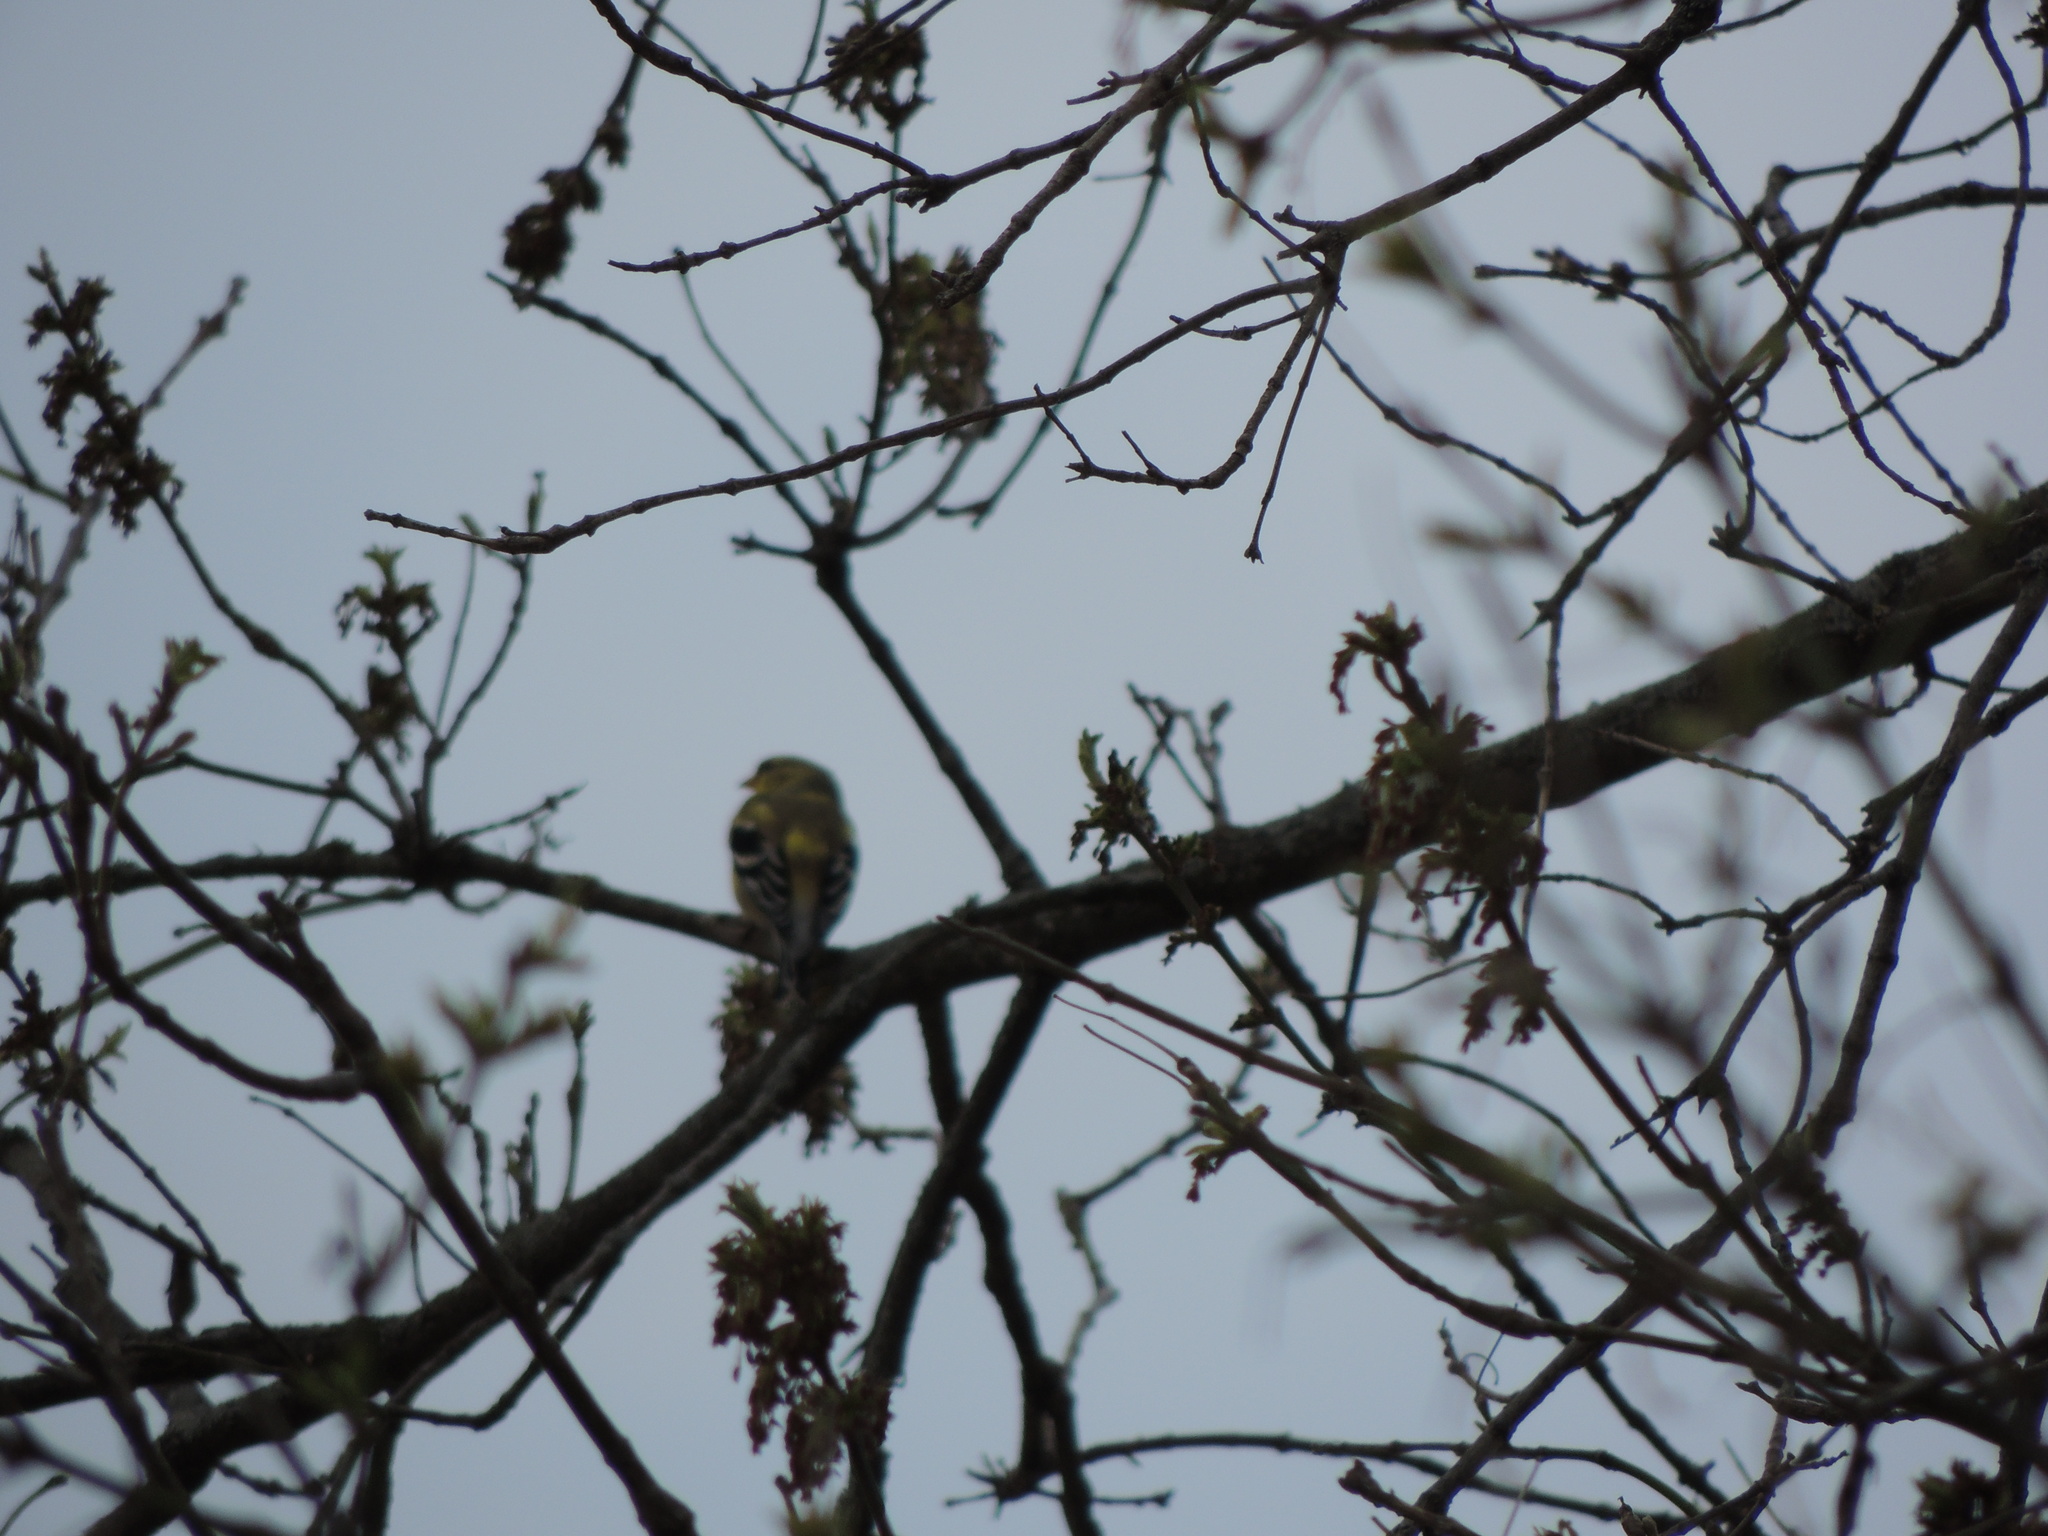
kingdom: Animalia
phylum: Chordata
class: Aves
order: Passeriformes
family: Fringillidae
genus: Spinus
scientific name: Spinus tristis
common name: American goldfinch
